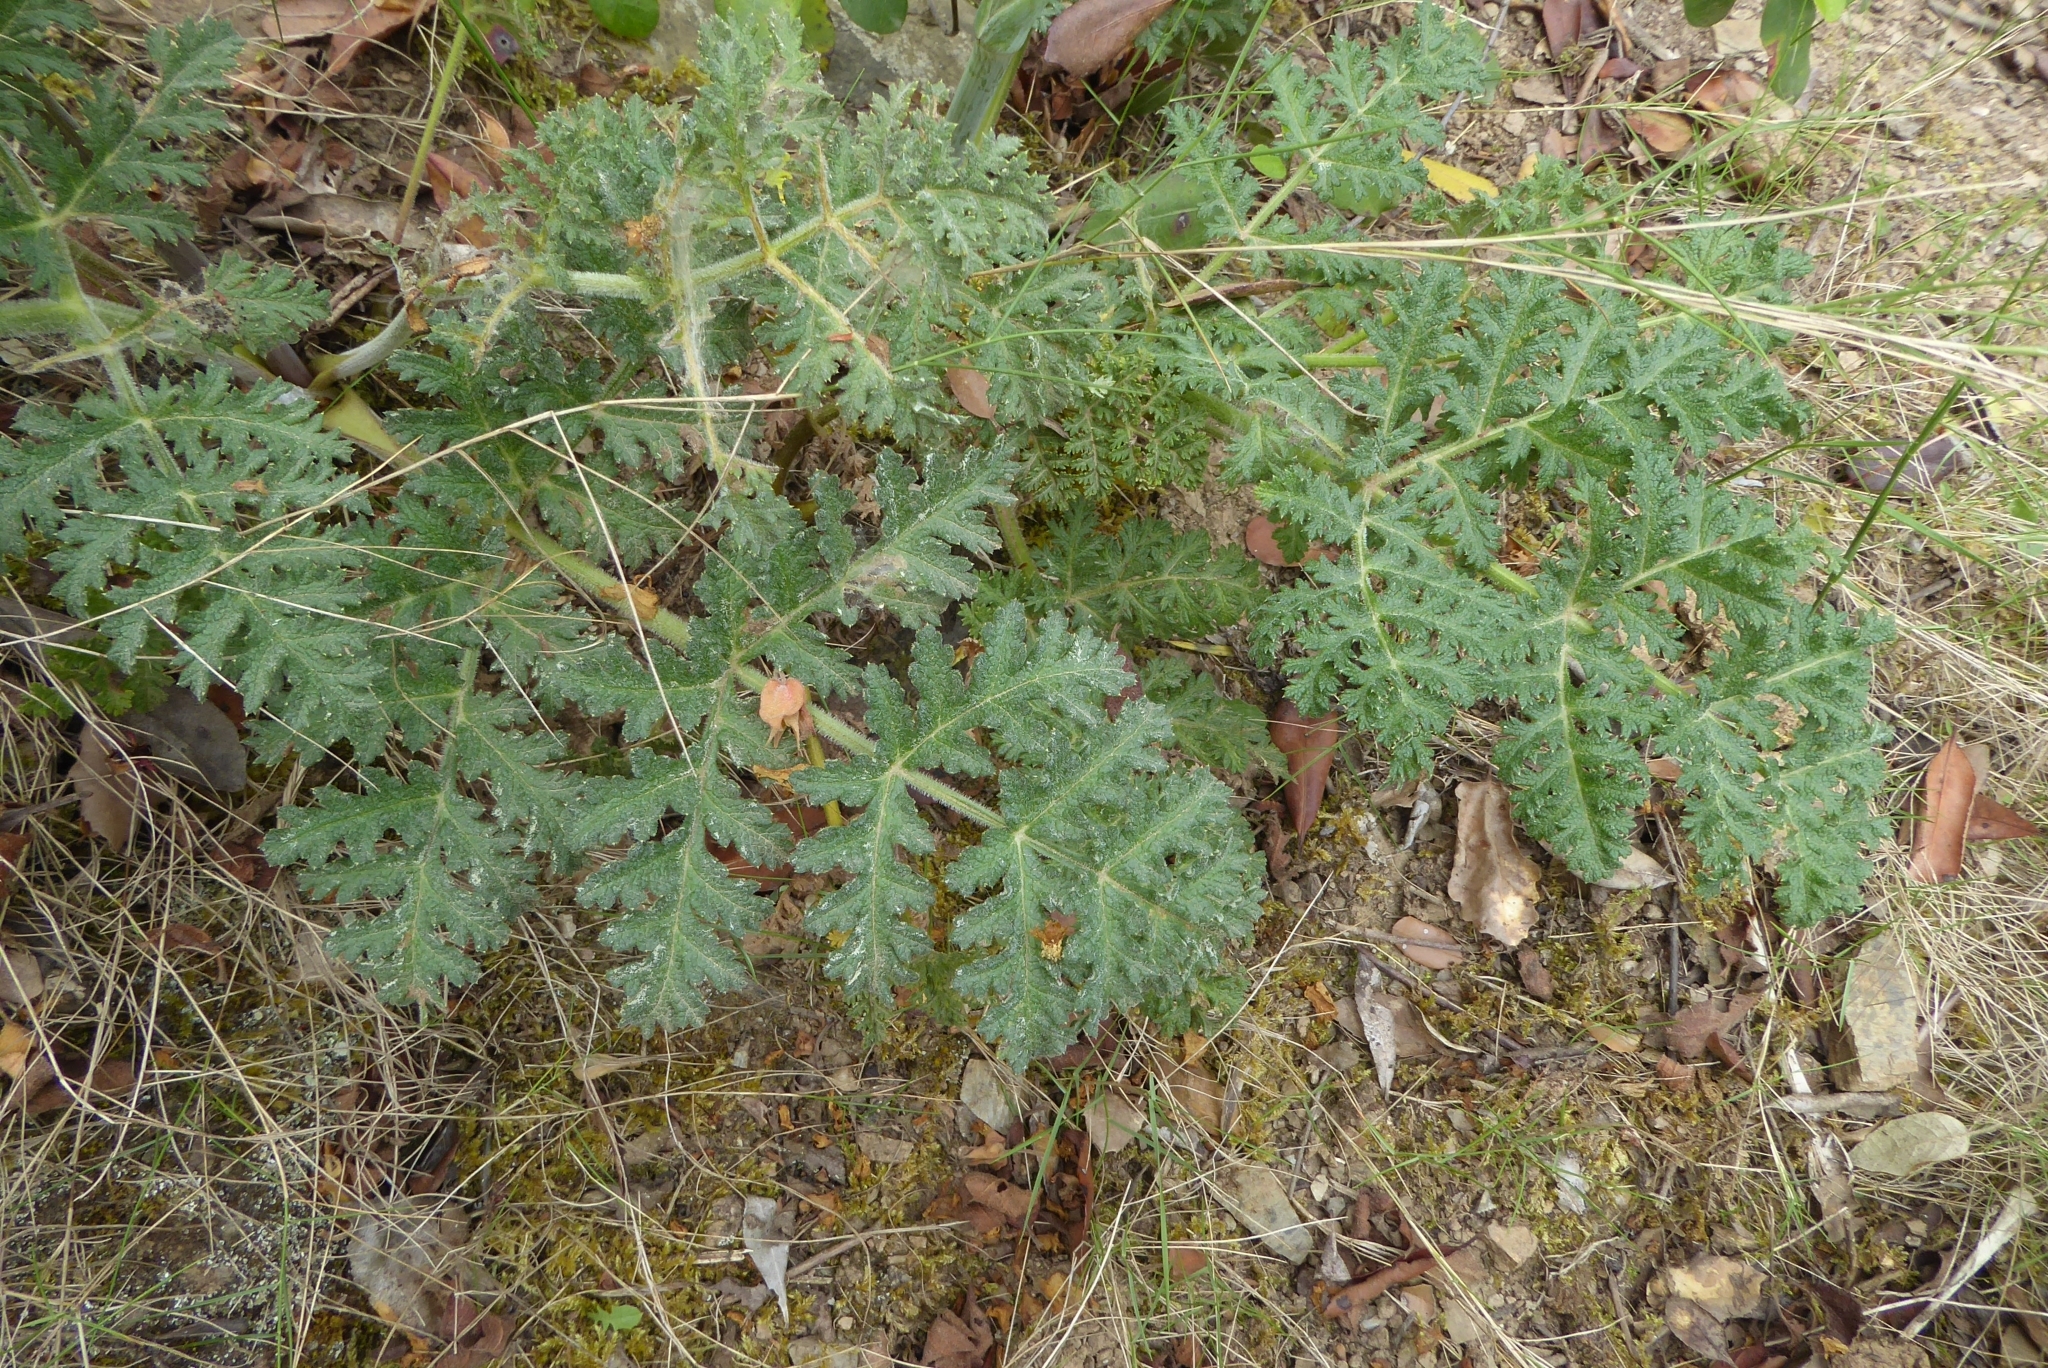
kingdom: Plantae
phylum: Tracheophyta
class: Magnoliopsida
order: Apiales
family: Apiaceae
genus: Thapsia
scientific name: Thapsia villosa
